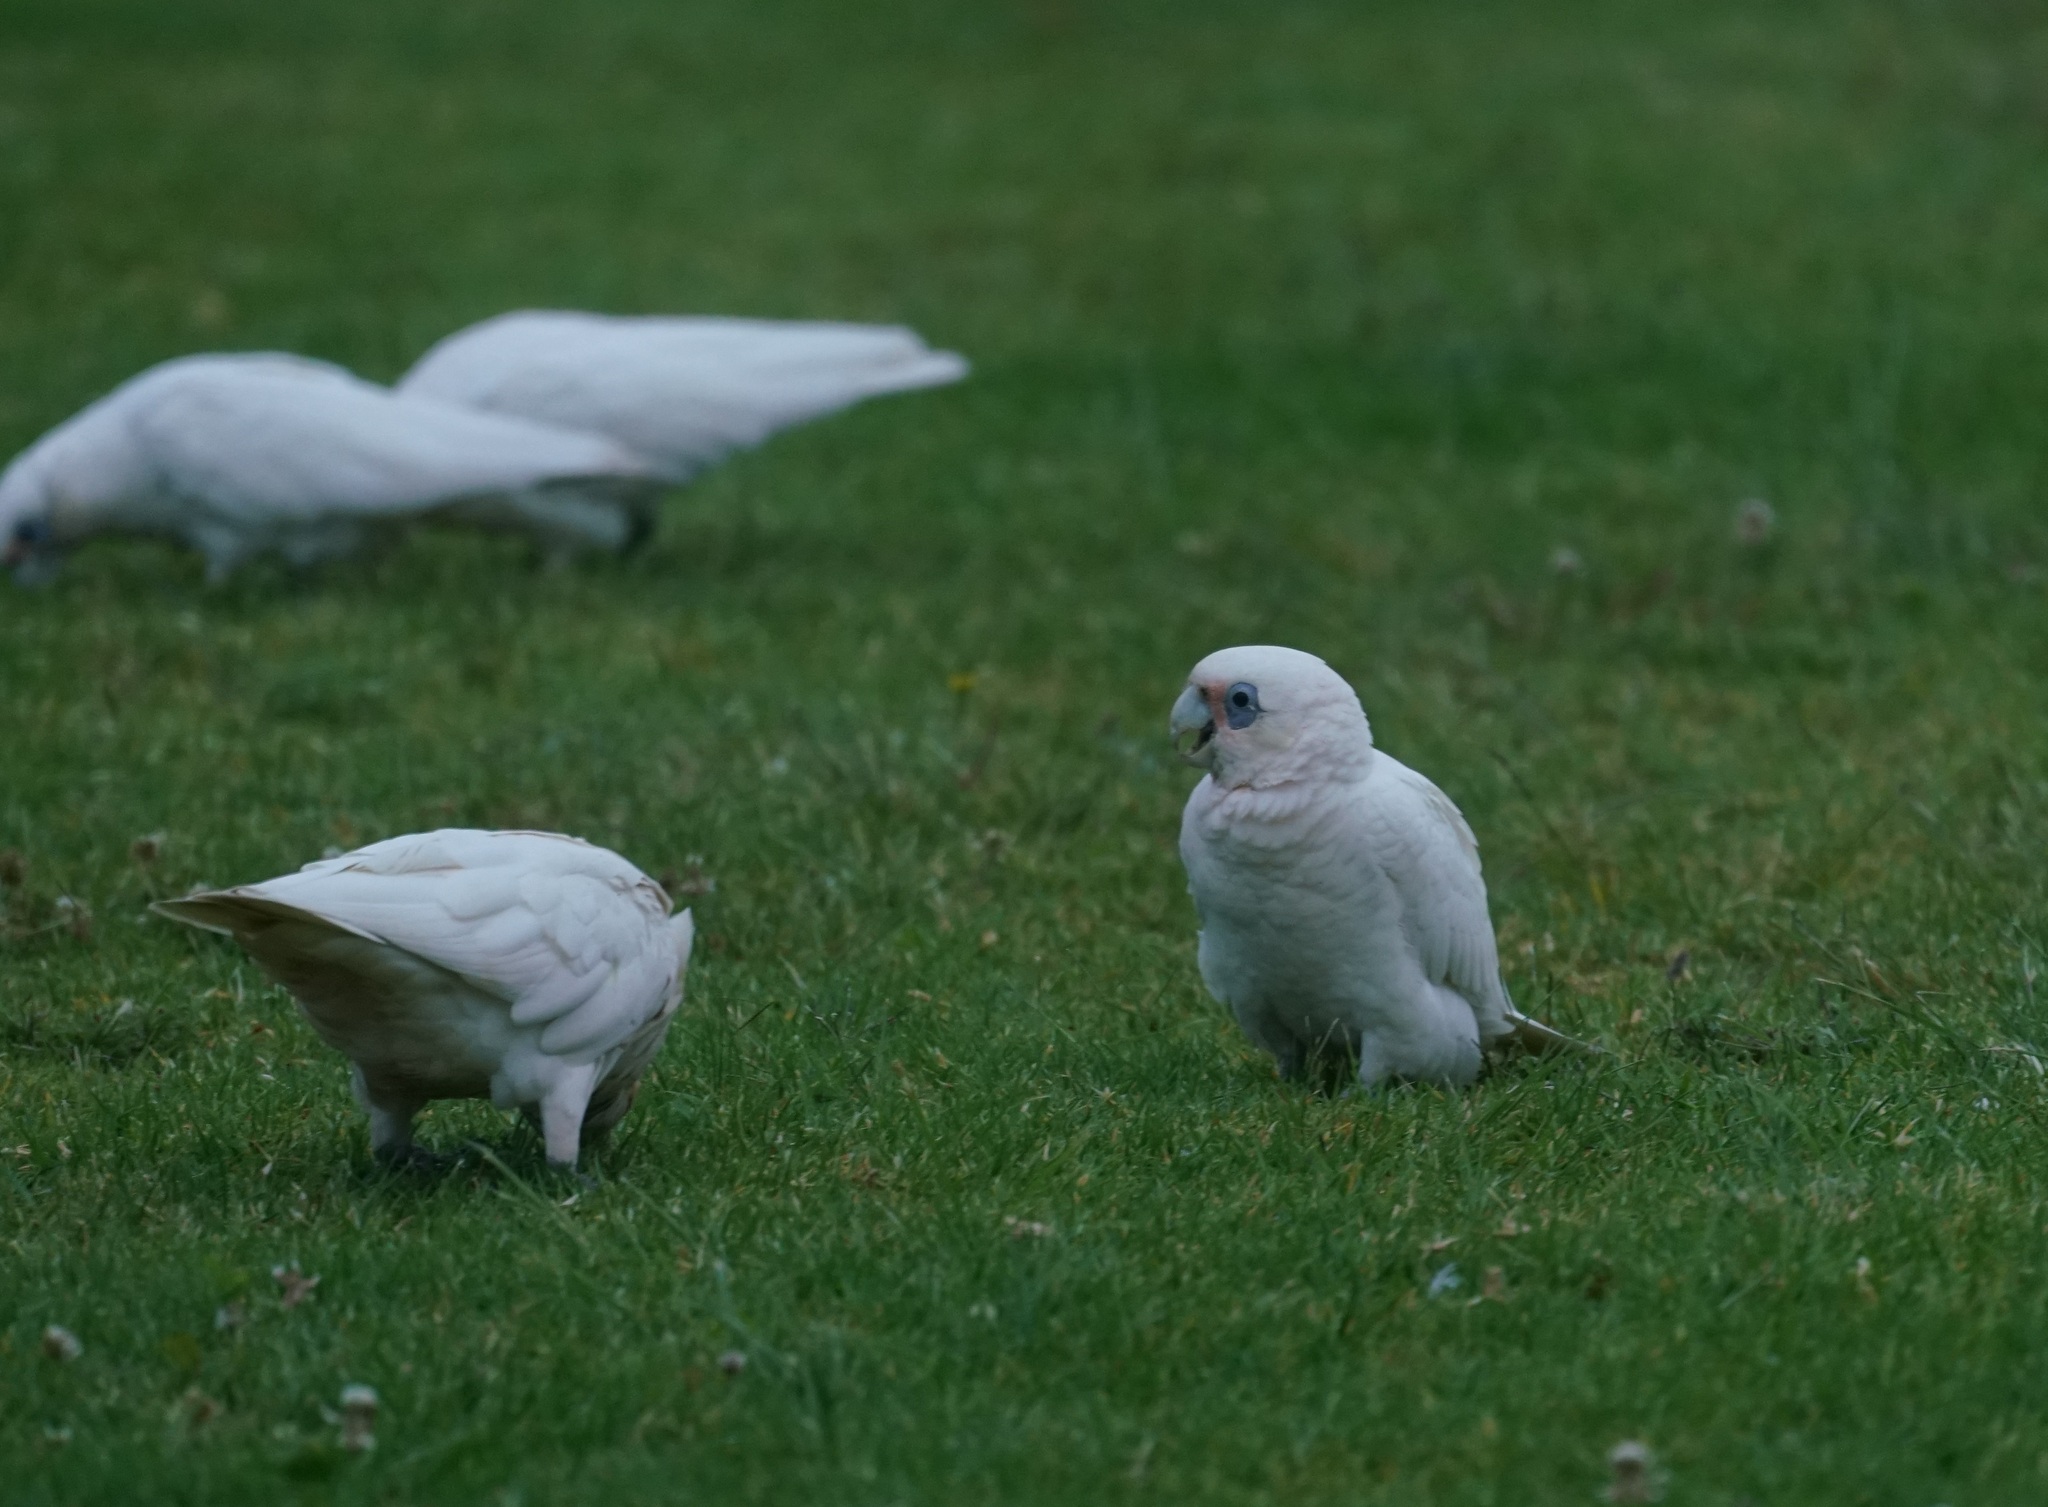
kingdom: Animalia
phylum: Chordata
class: Aves
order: Psittaciformes
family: Psittacidae
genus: Cacatua
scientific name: Cacatua sanguinea
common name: Little corella
